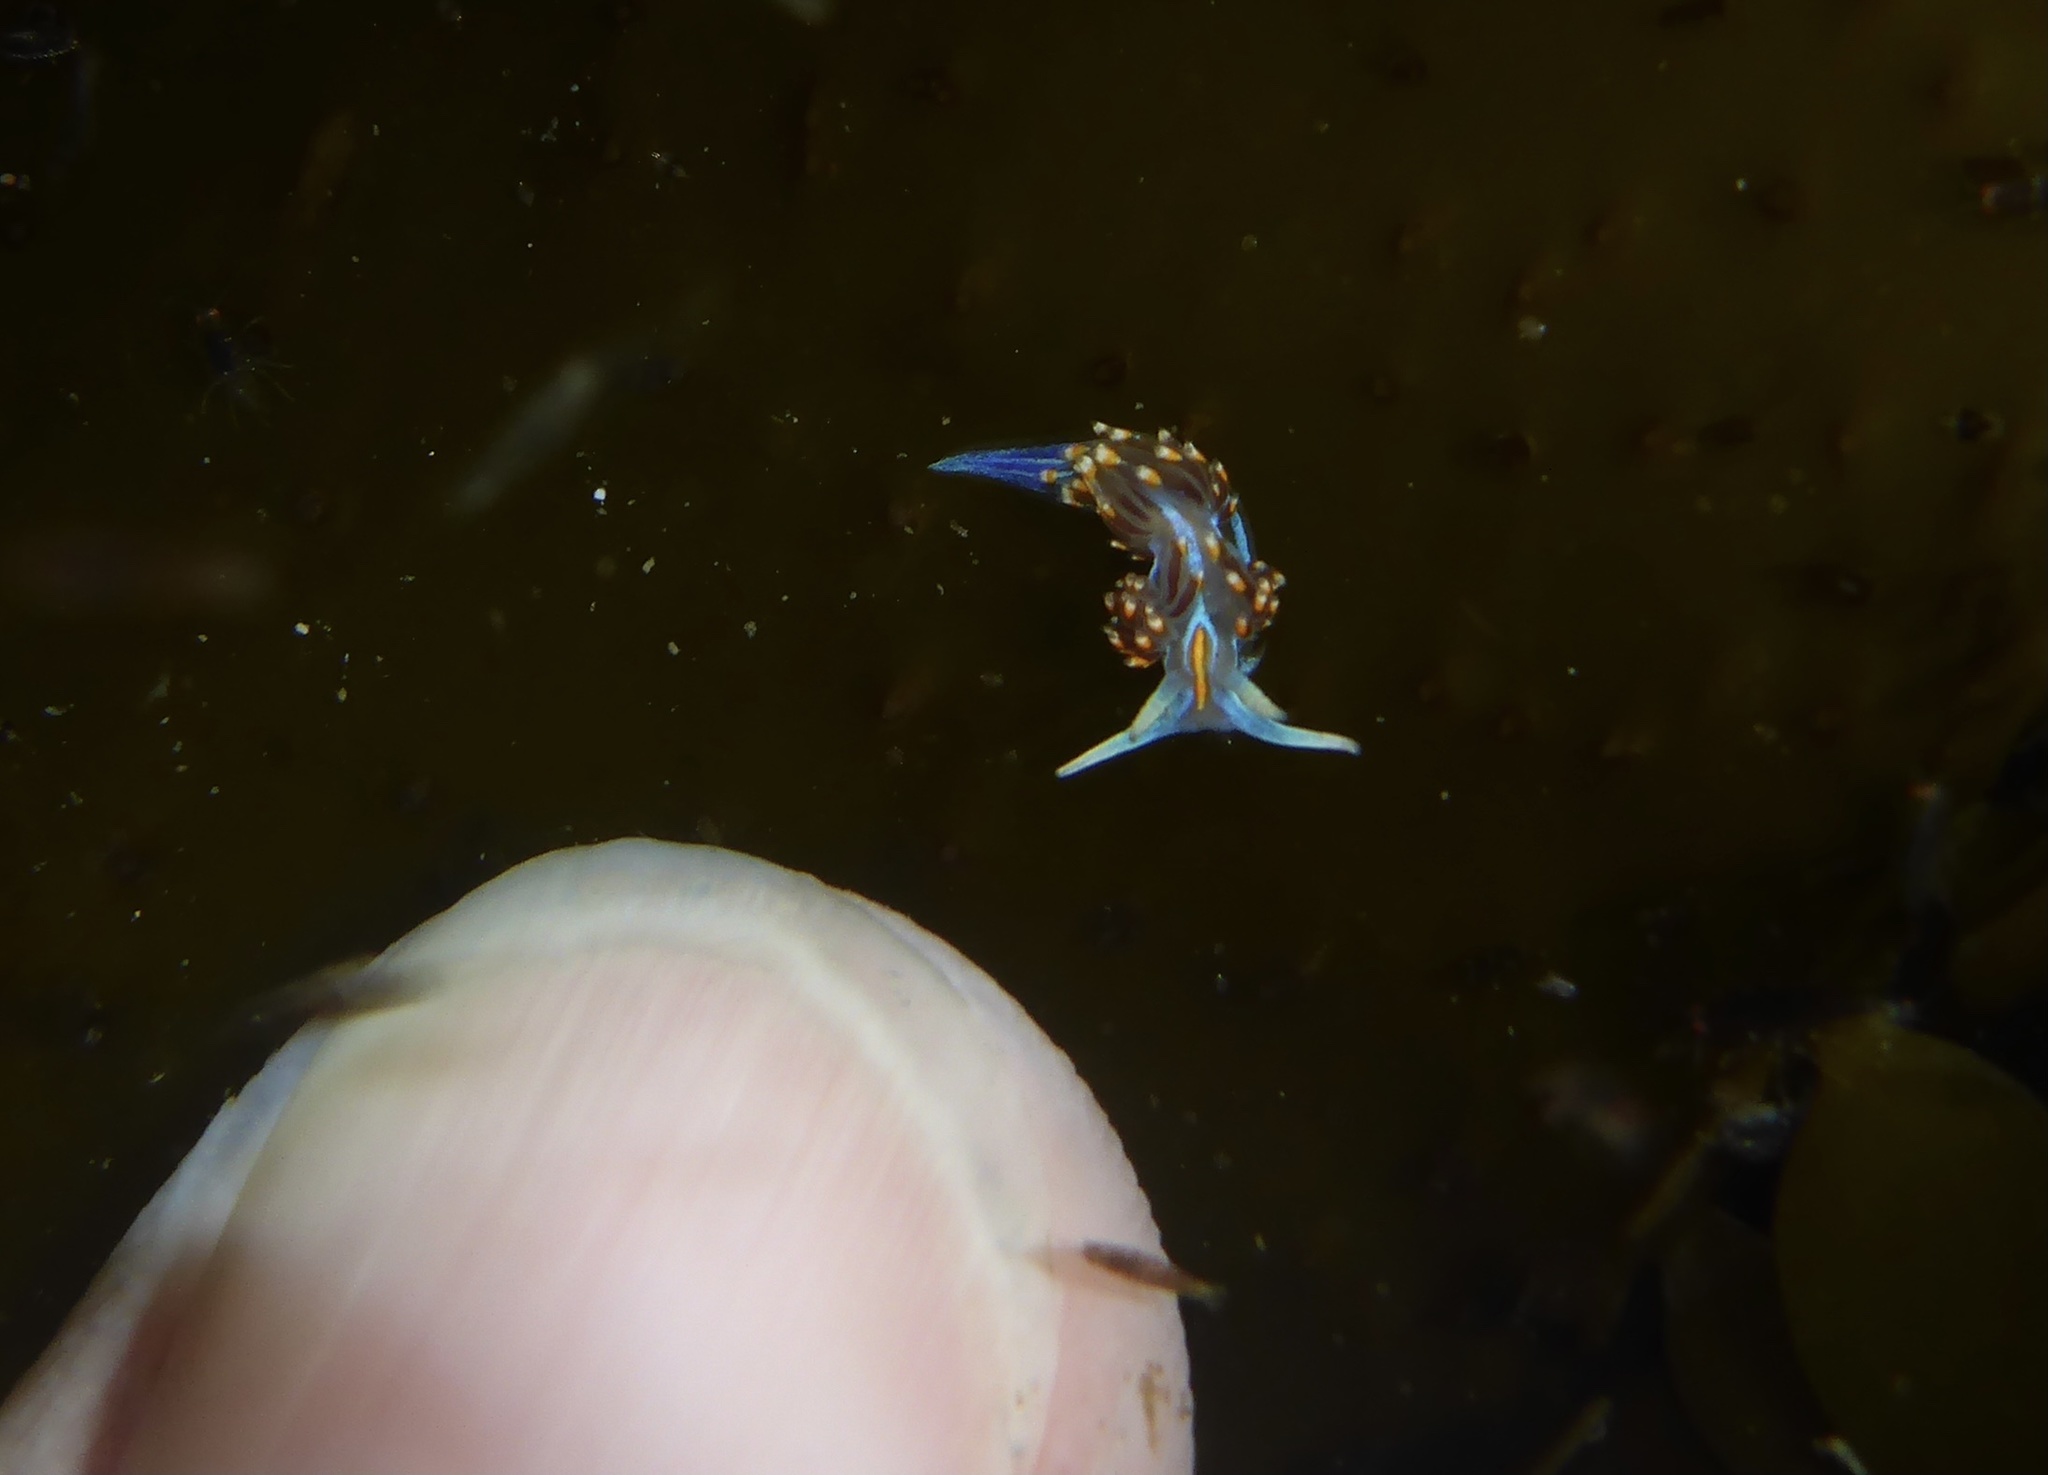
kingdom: Animalia
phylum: Mollusca
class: Gastropoda
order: Nudibranchia
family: Myrrhinidae
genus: Hermissenda
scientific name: Hermissenda opalescens
